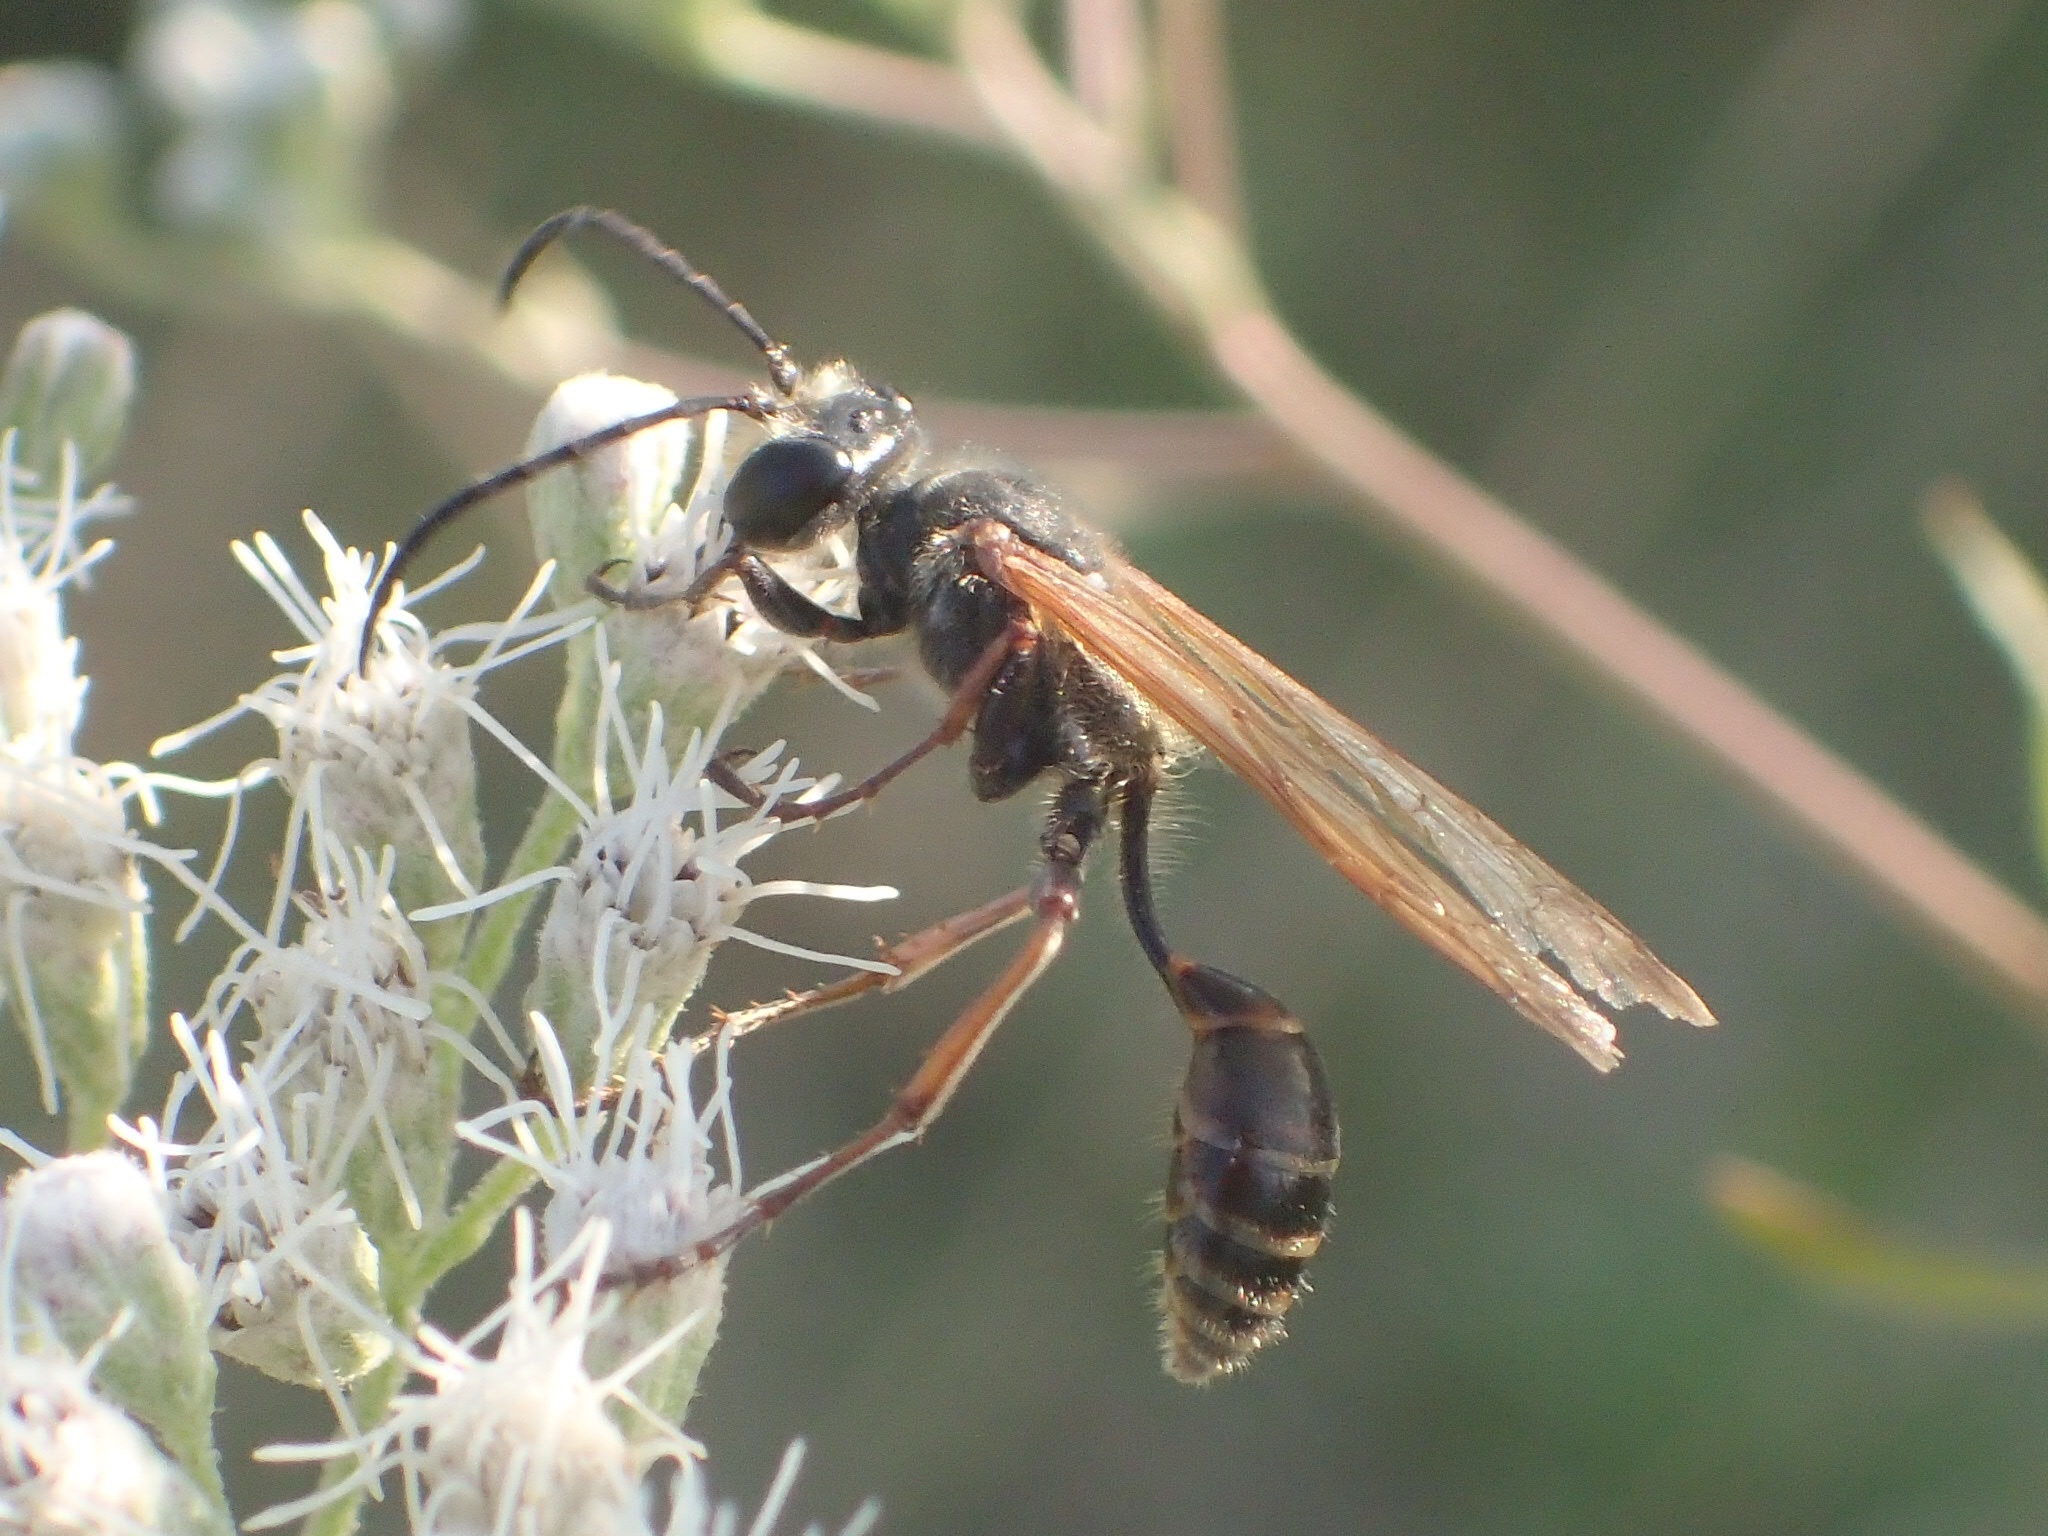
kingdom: Animalia
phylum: Arthropoda
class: Insecta
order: Hymenoptera
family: Sphecidae
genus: Isodontia
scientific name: Isodontia elegans
